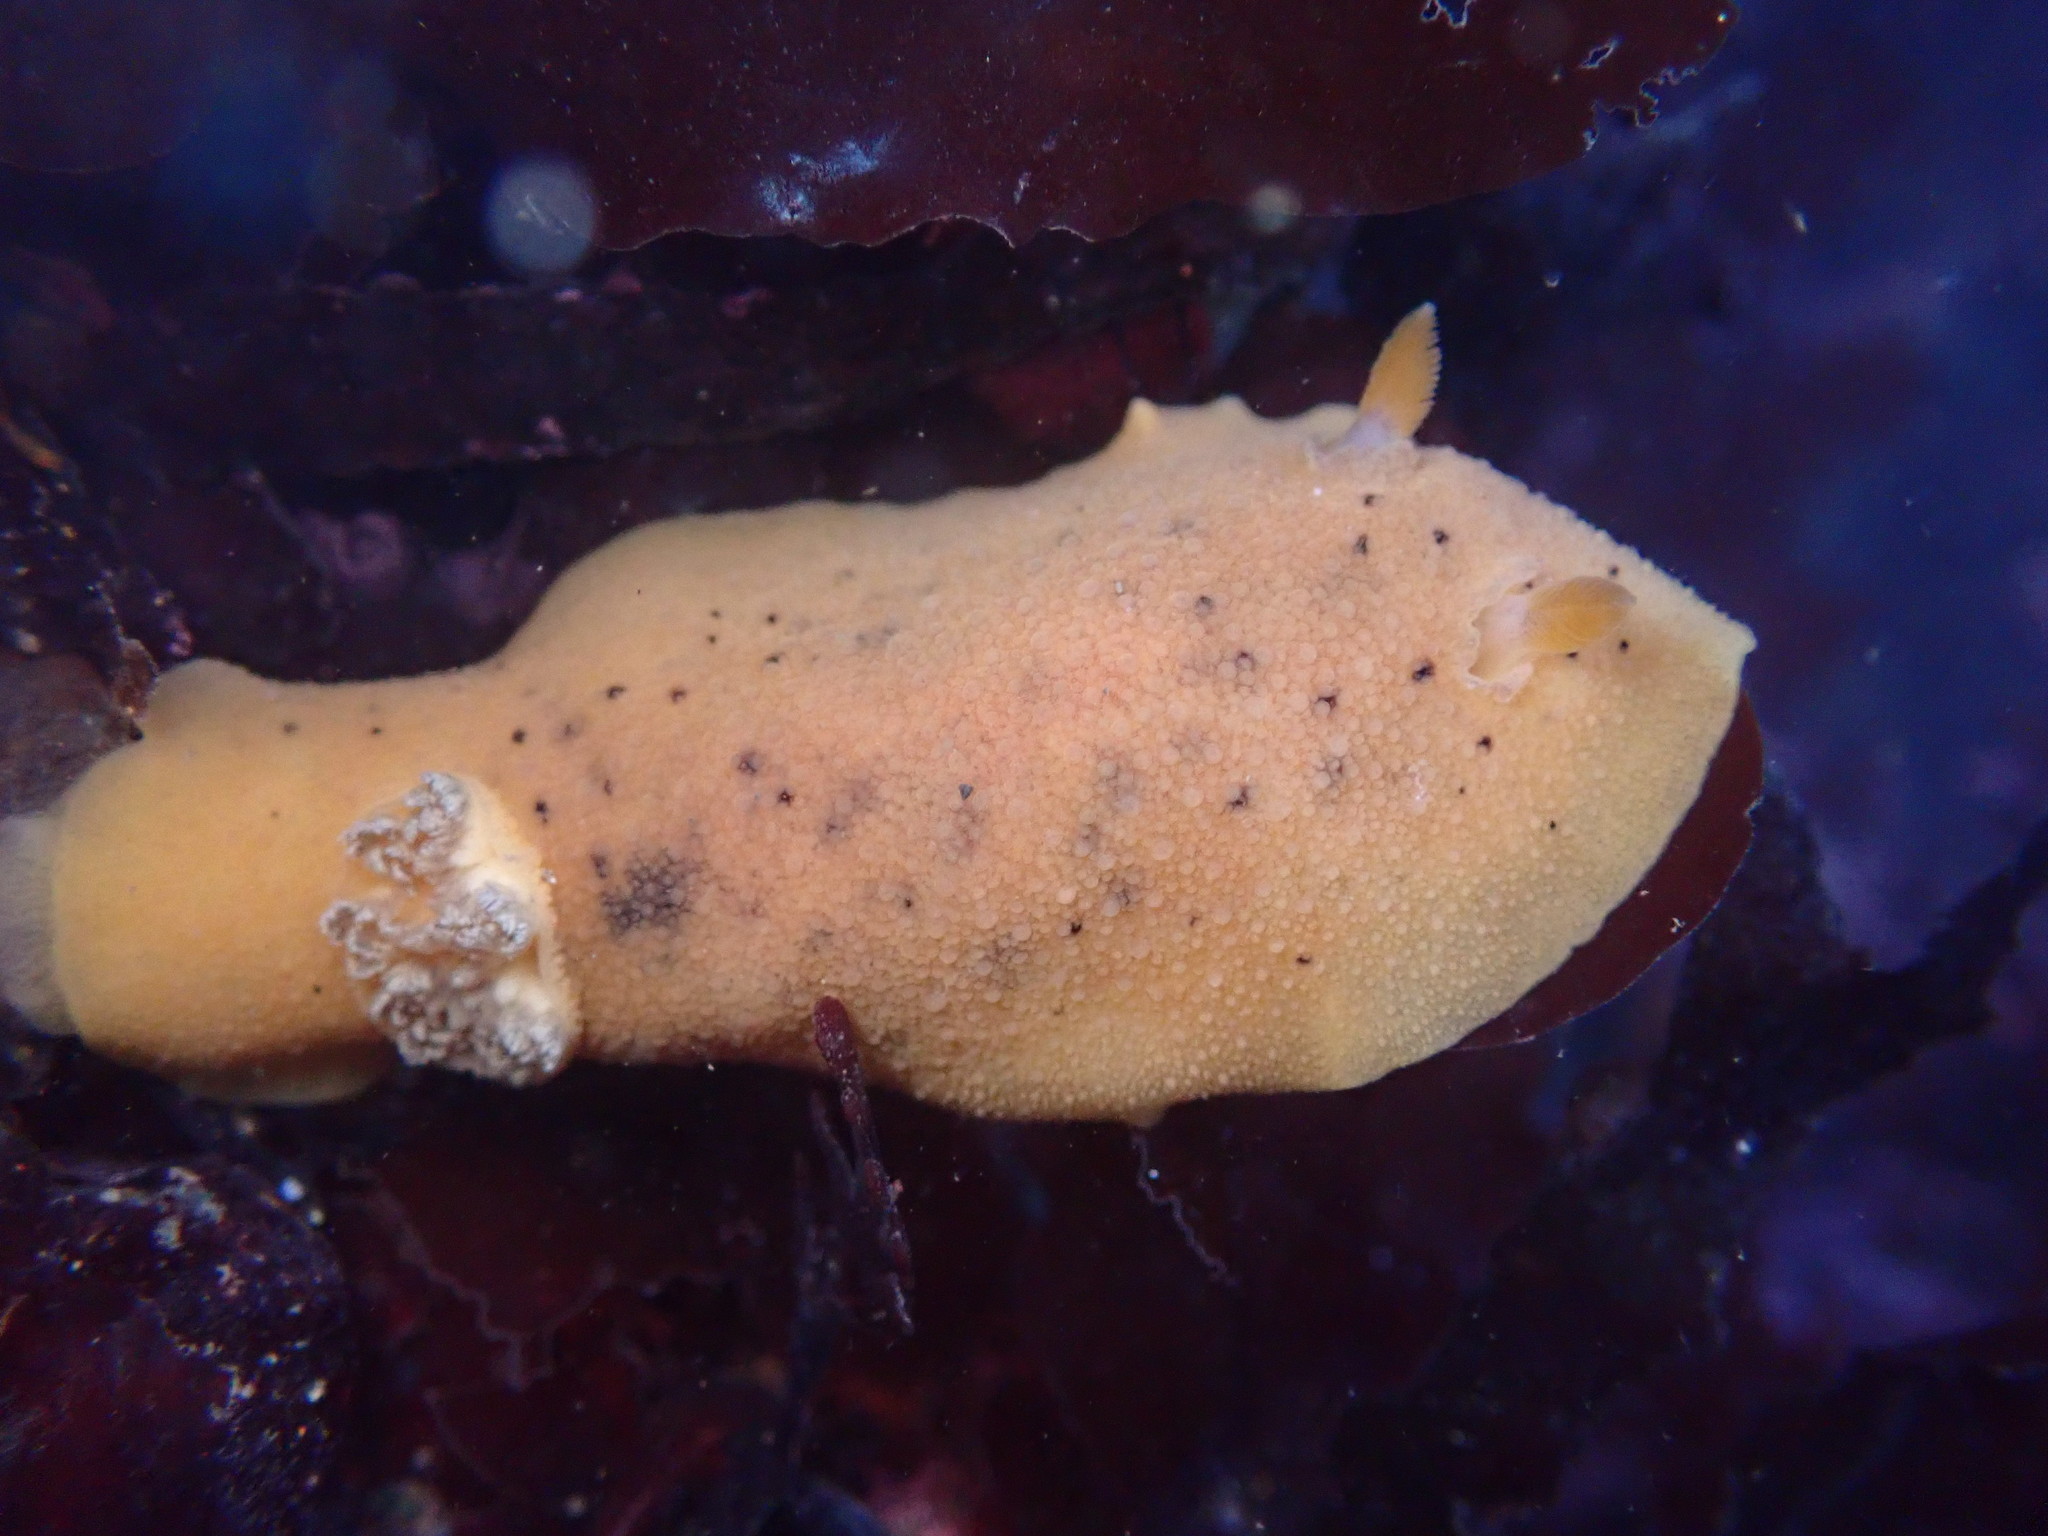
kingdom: Animalia
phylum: Mollusca
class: Gastropoda
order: Nudibranchia
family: Discodorididae
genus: Geitodoris
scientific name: Geitodoris heathi
